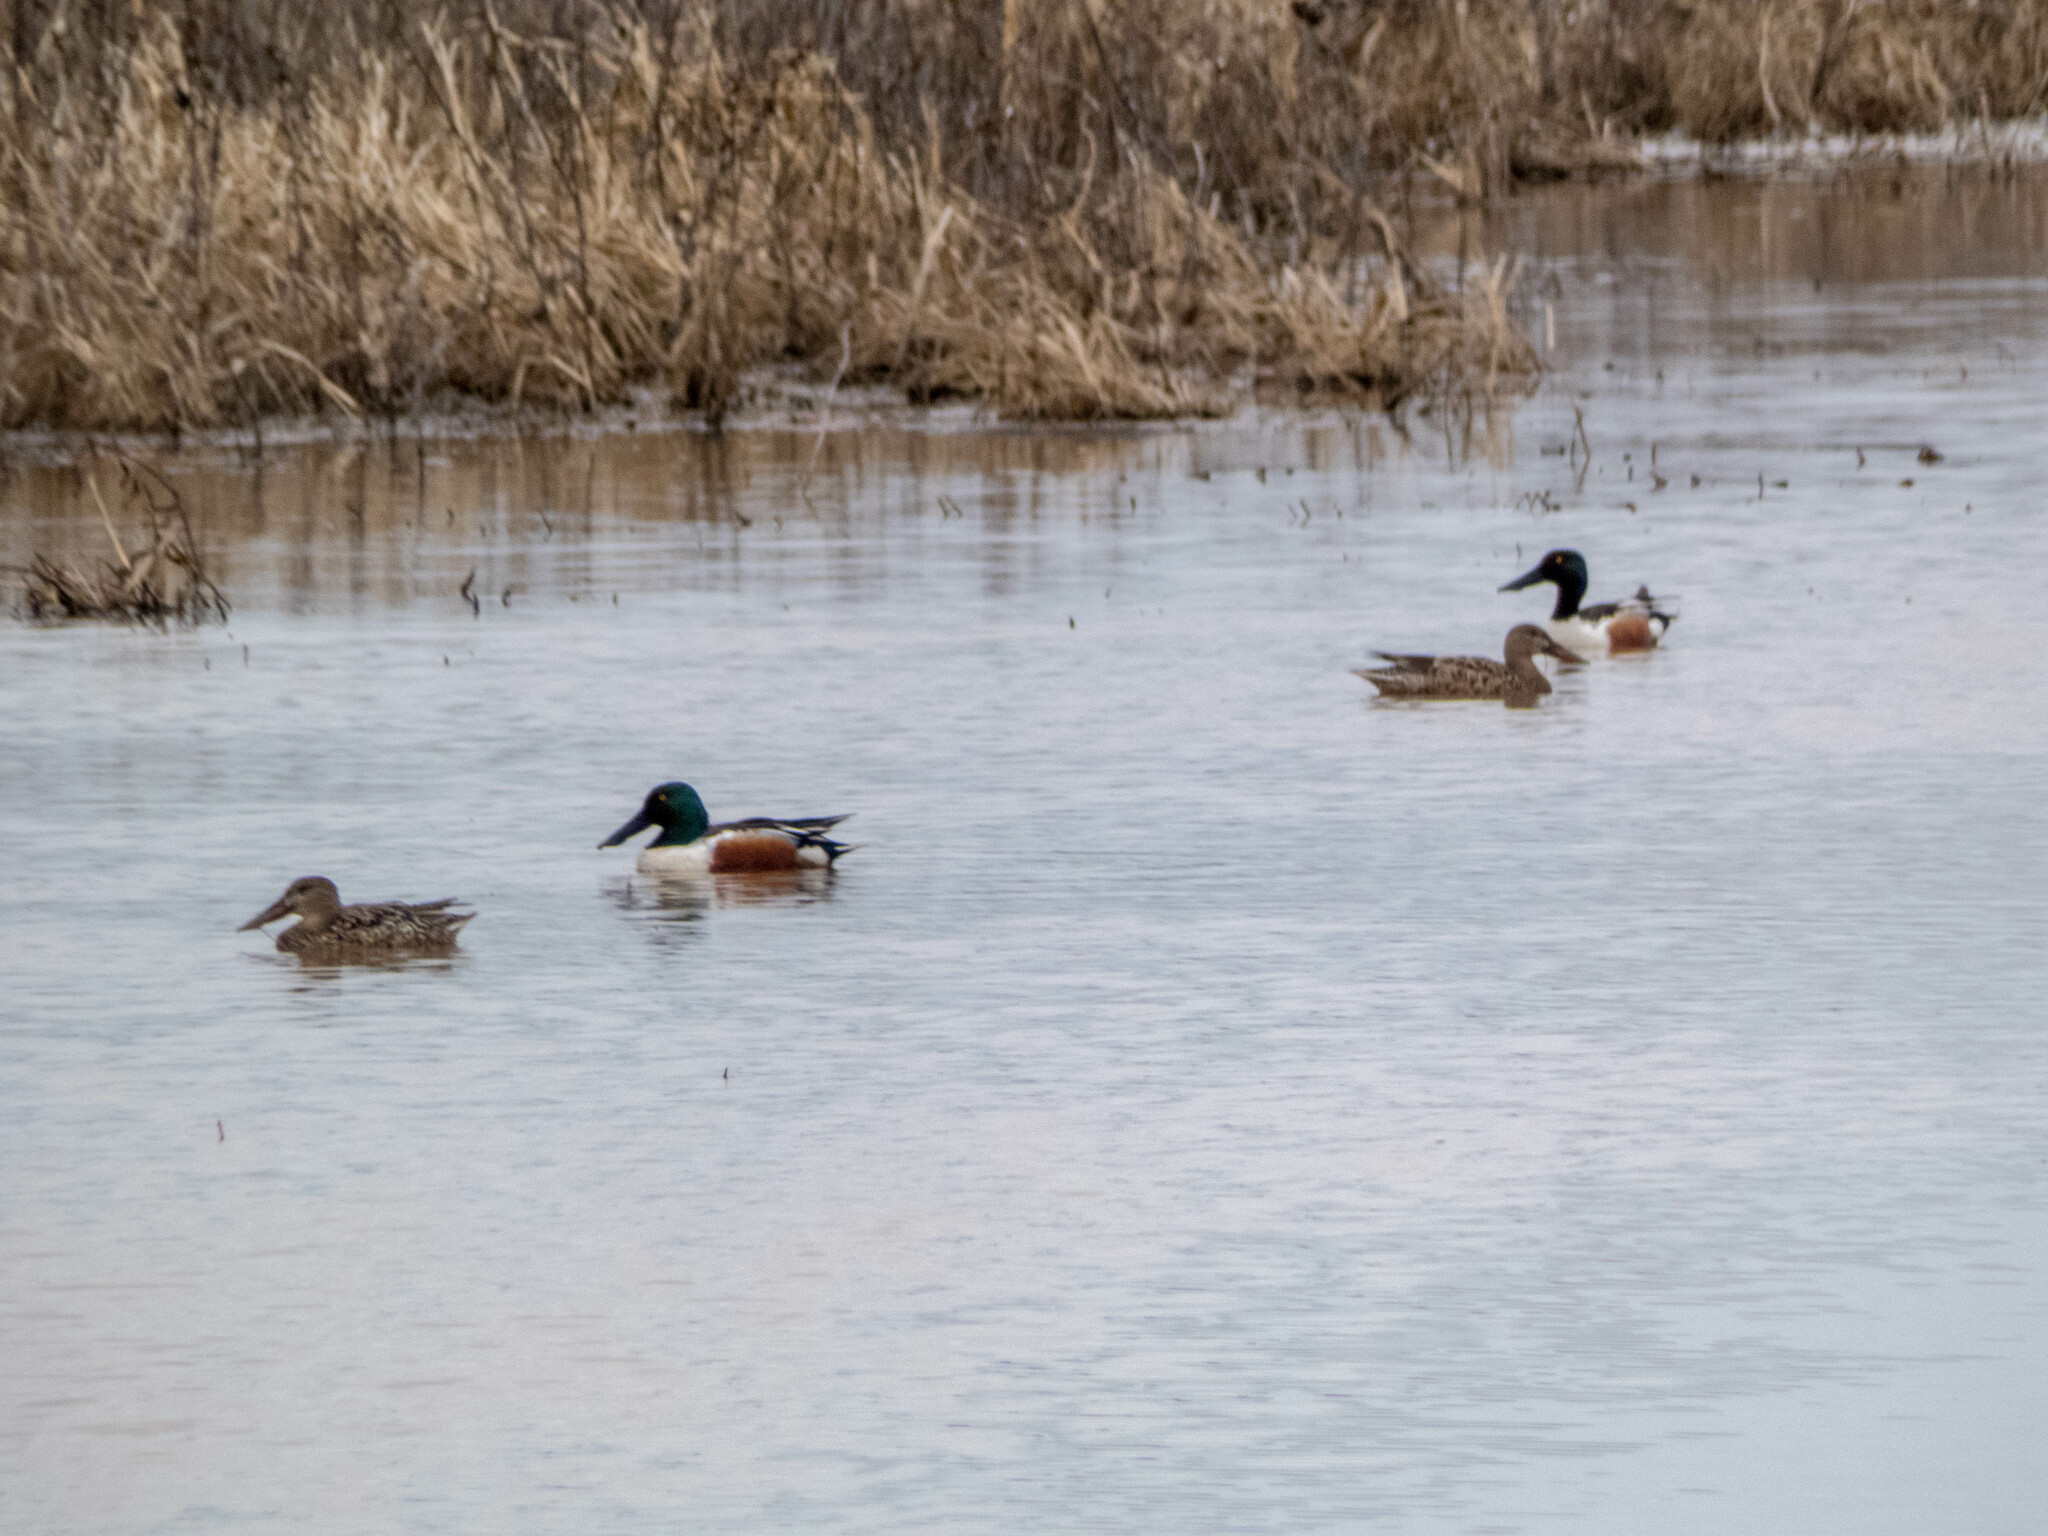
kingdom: Animalia
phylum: Chordata
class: Aves
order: Anseriformes
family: Anatidae
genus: Spatula
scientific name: Spatula clypeata
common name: Northern shoveler
